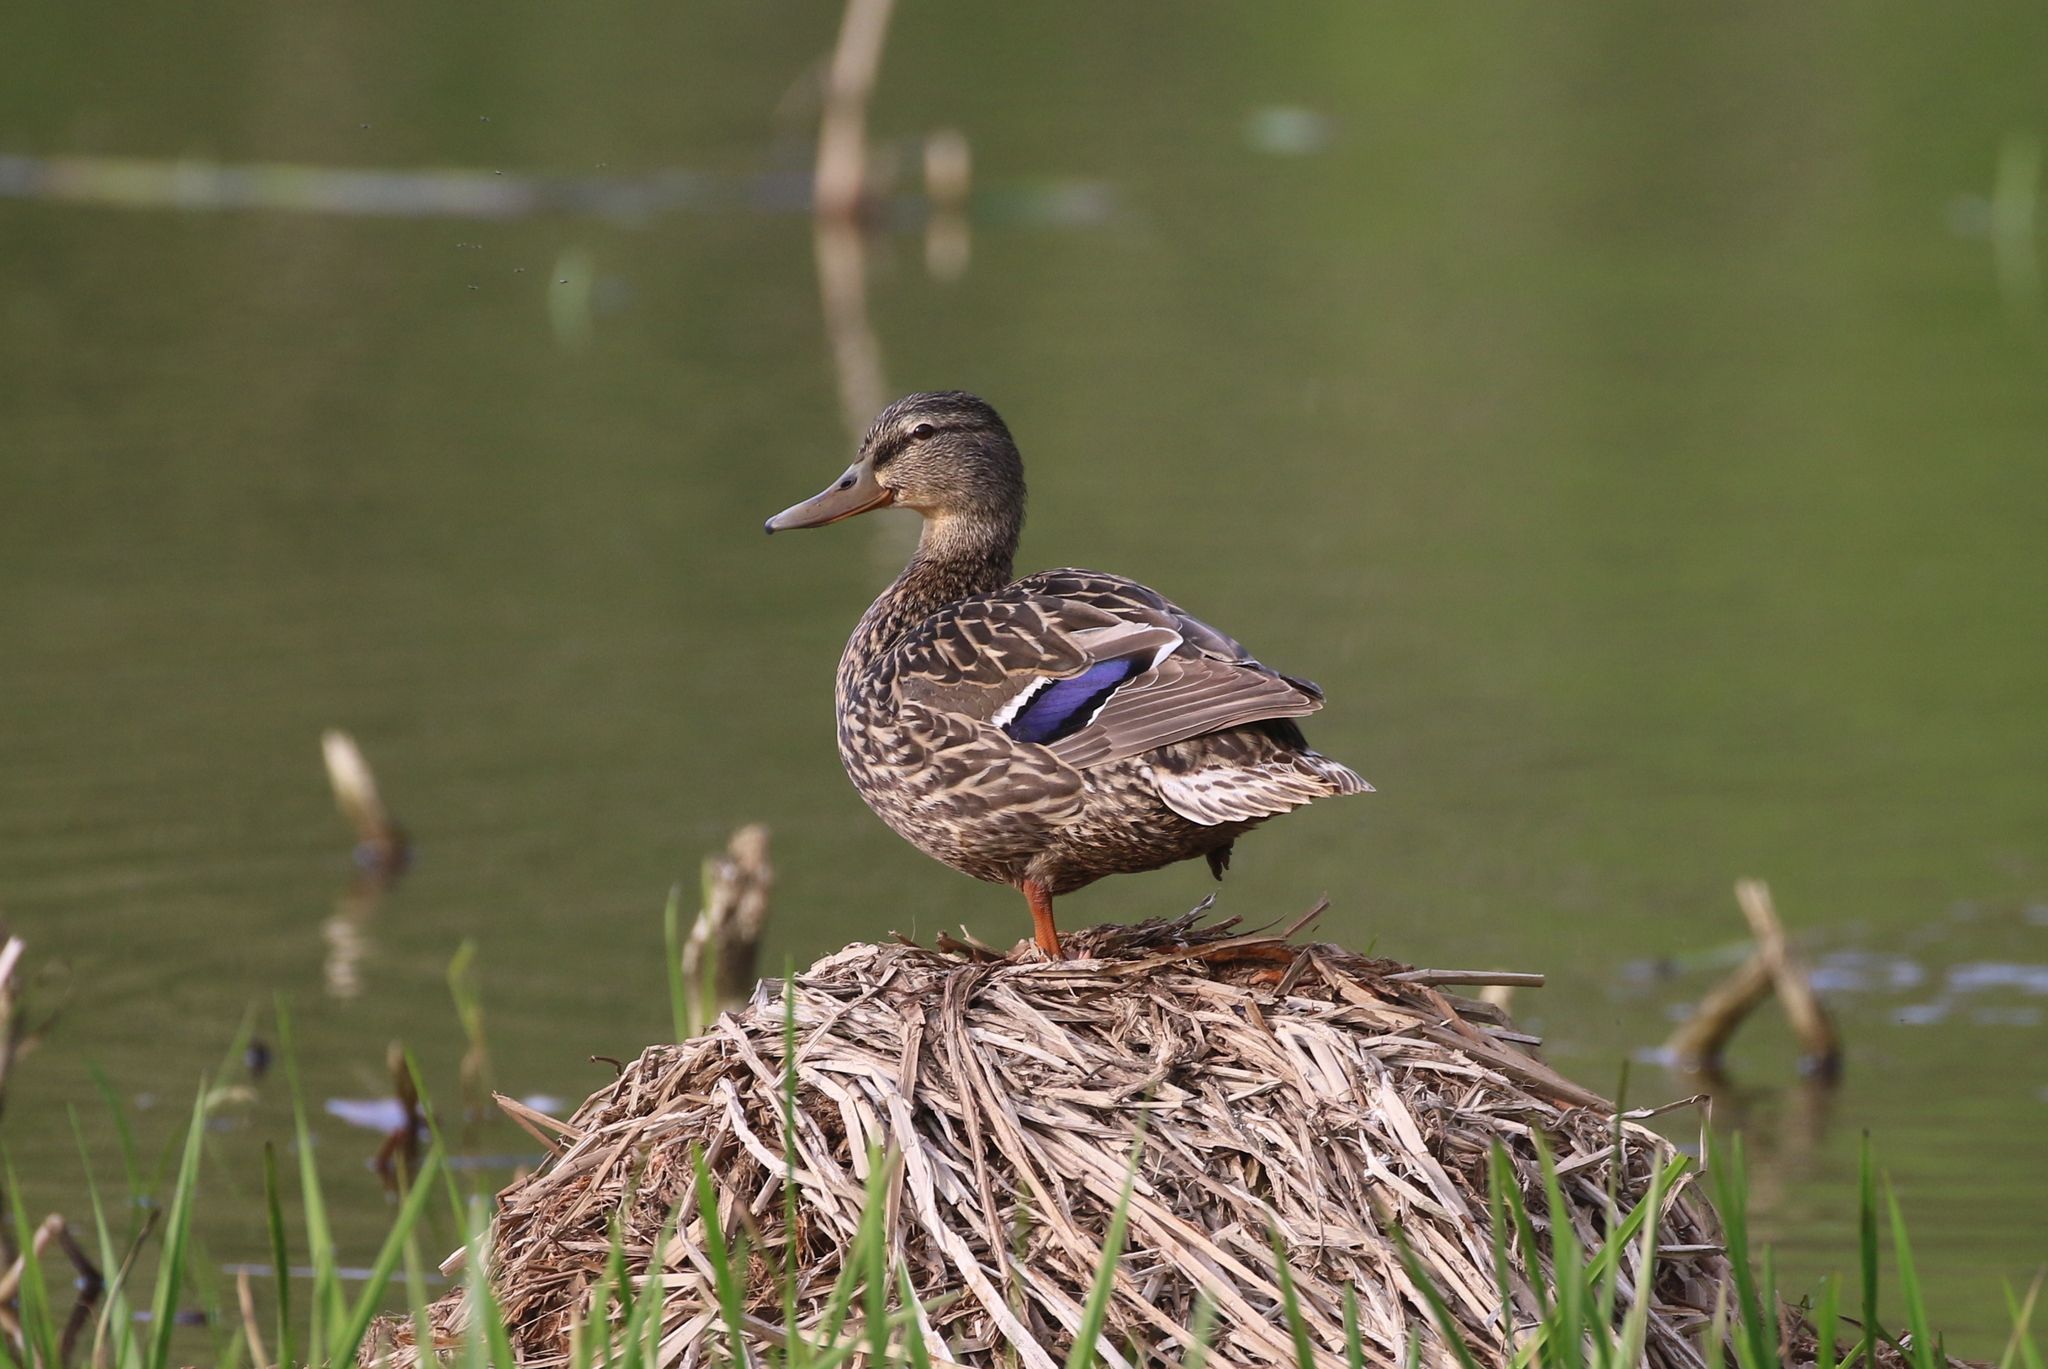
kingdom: Animalia
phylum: Chordata
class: Aves
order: Anseriformes
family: Anatidae
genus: Anas
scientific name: Anas platyrhynchos
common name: Mallard
